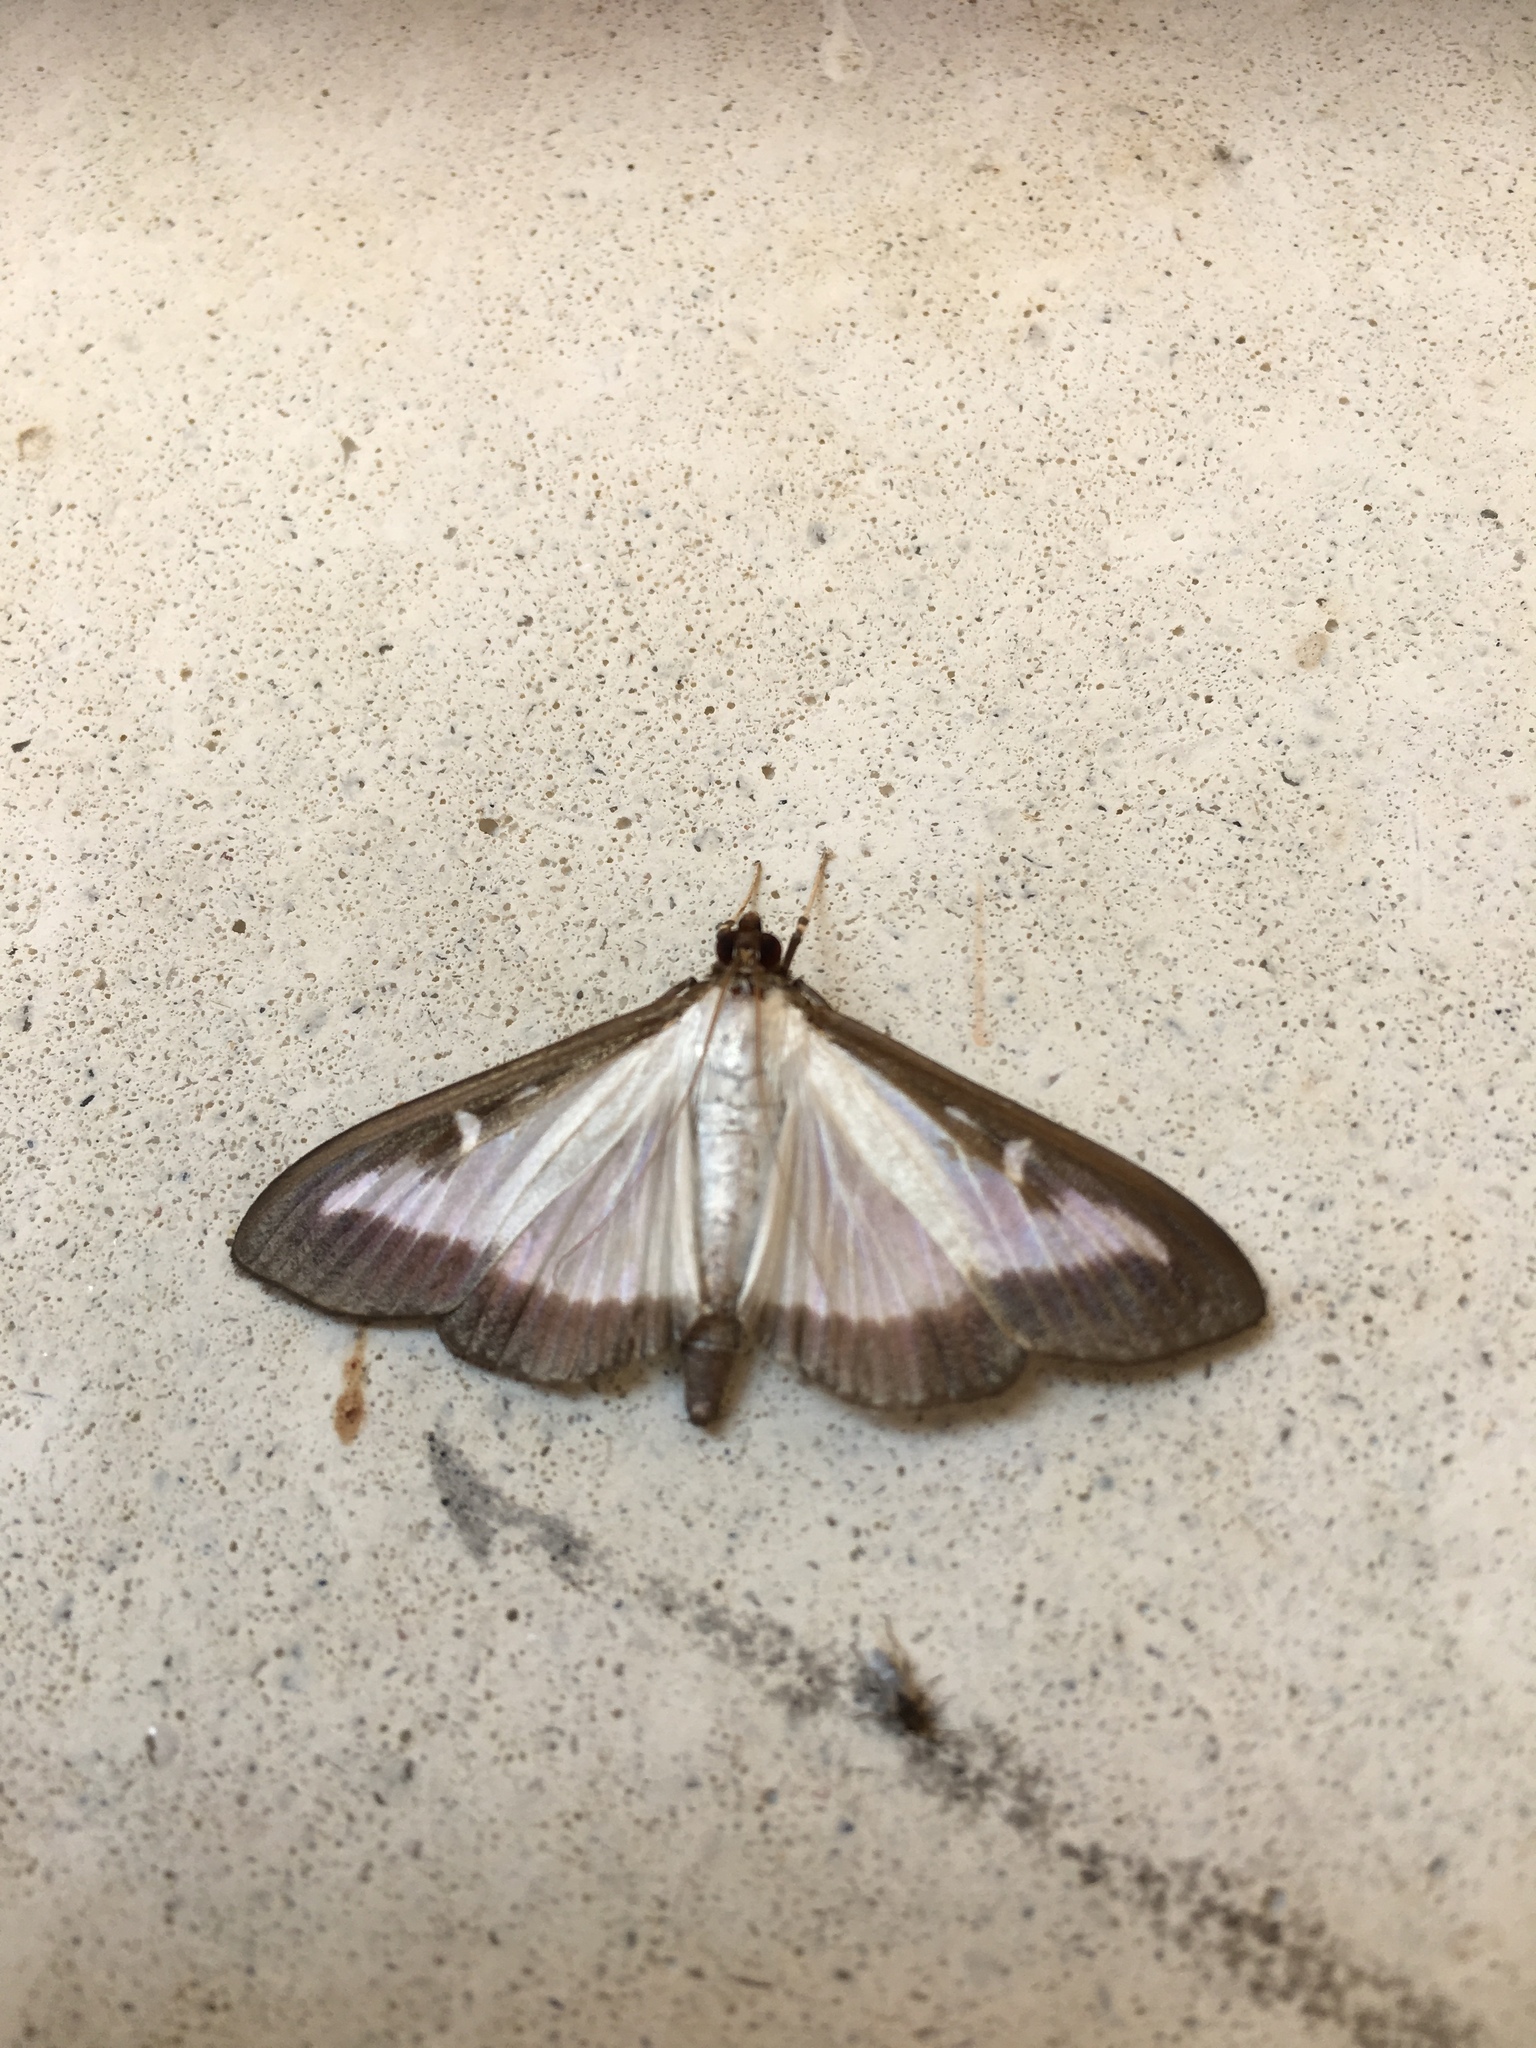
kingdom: Animalia
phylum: Arthropoda
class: Insecta
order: Lepidoptera
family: Crambidae
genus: Cydalima
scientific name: Cydalima perspectalis
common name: Box tree moth
